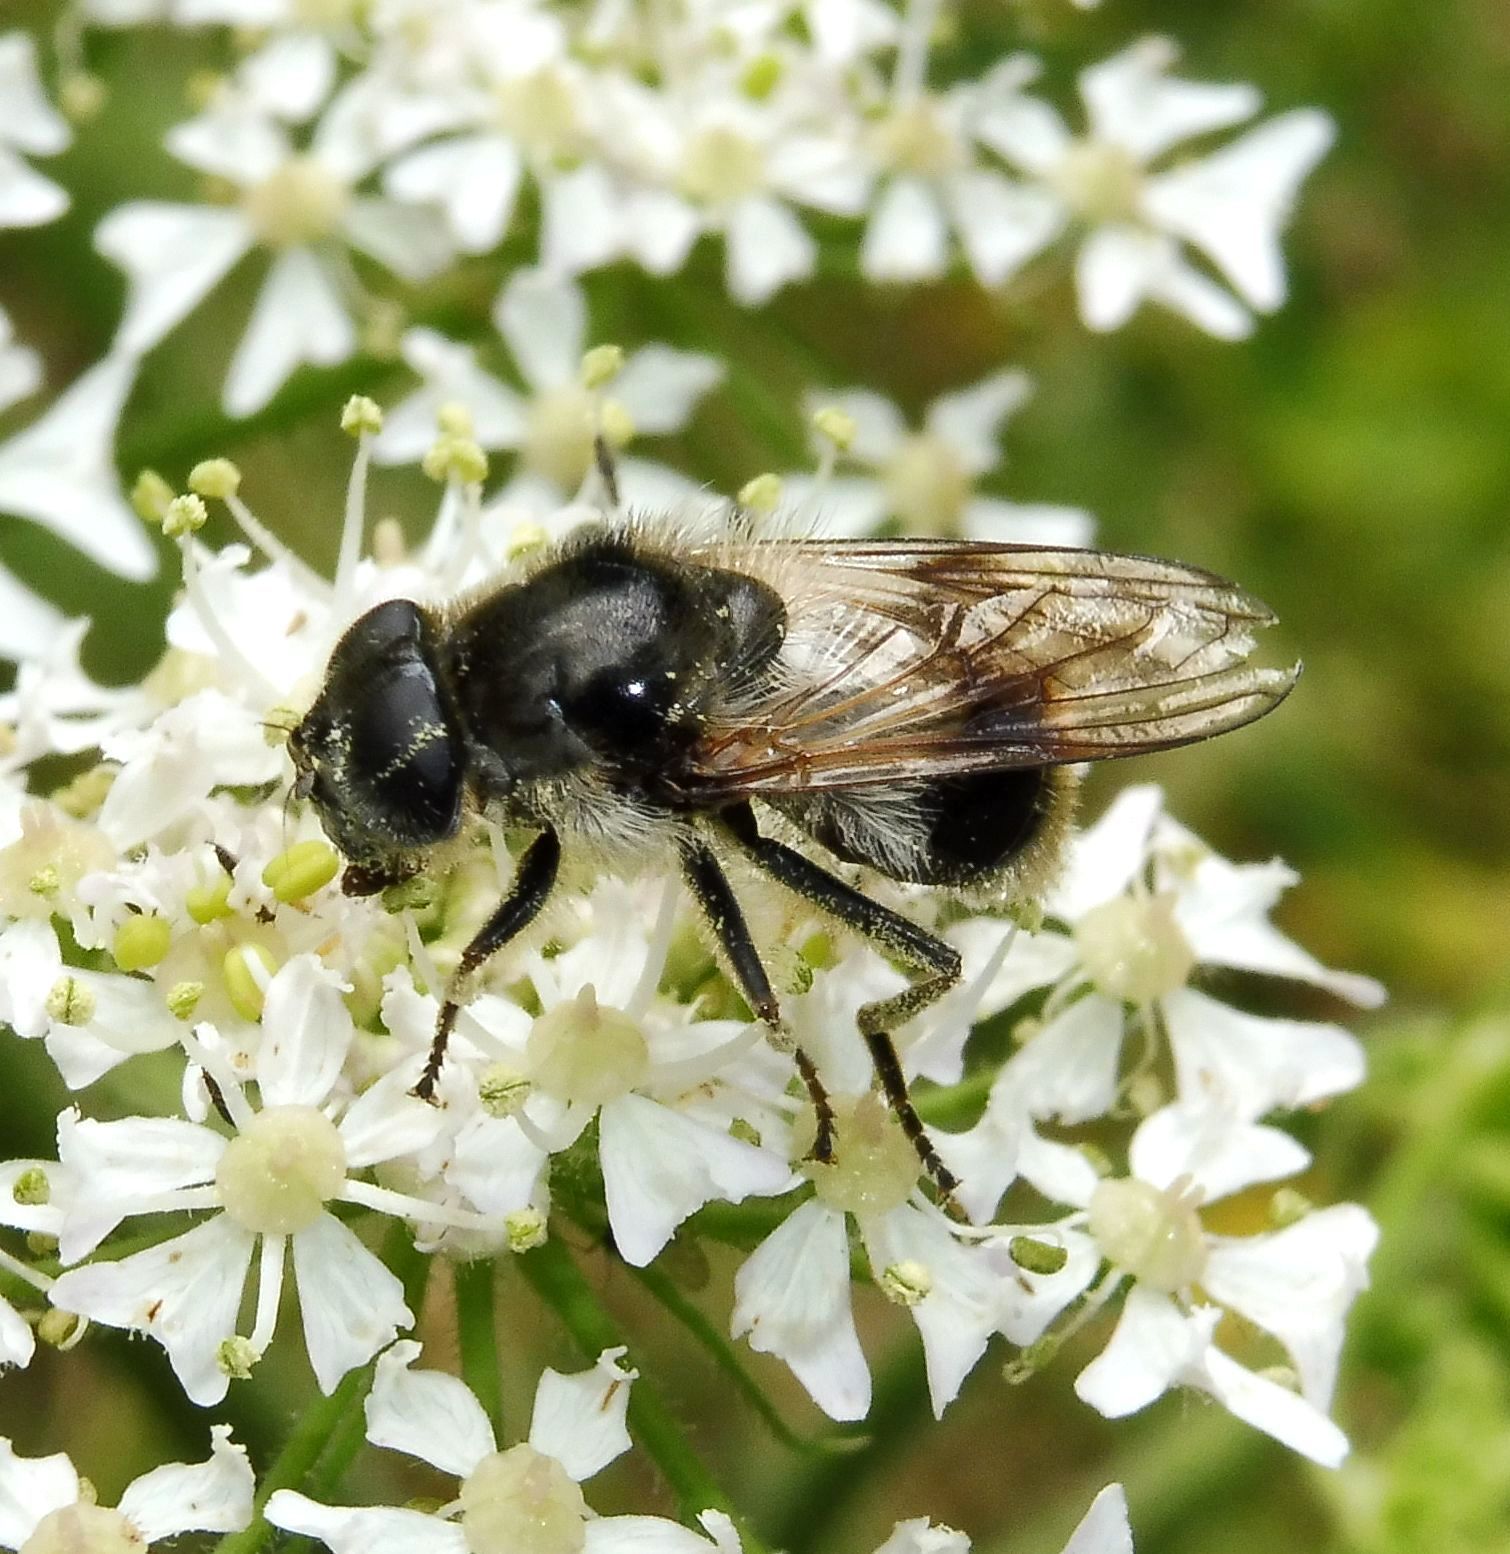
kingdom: Animalia
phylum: Arthropoda
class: Insecta
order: Diptera
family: Syrphidae
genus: Cheilosia
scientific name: Cheilosia illustrata
